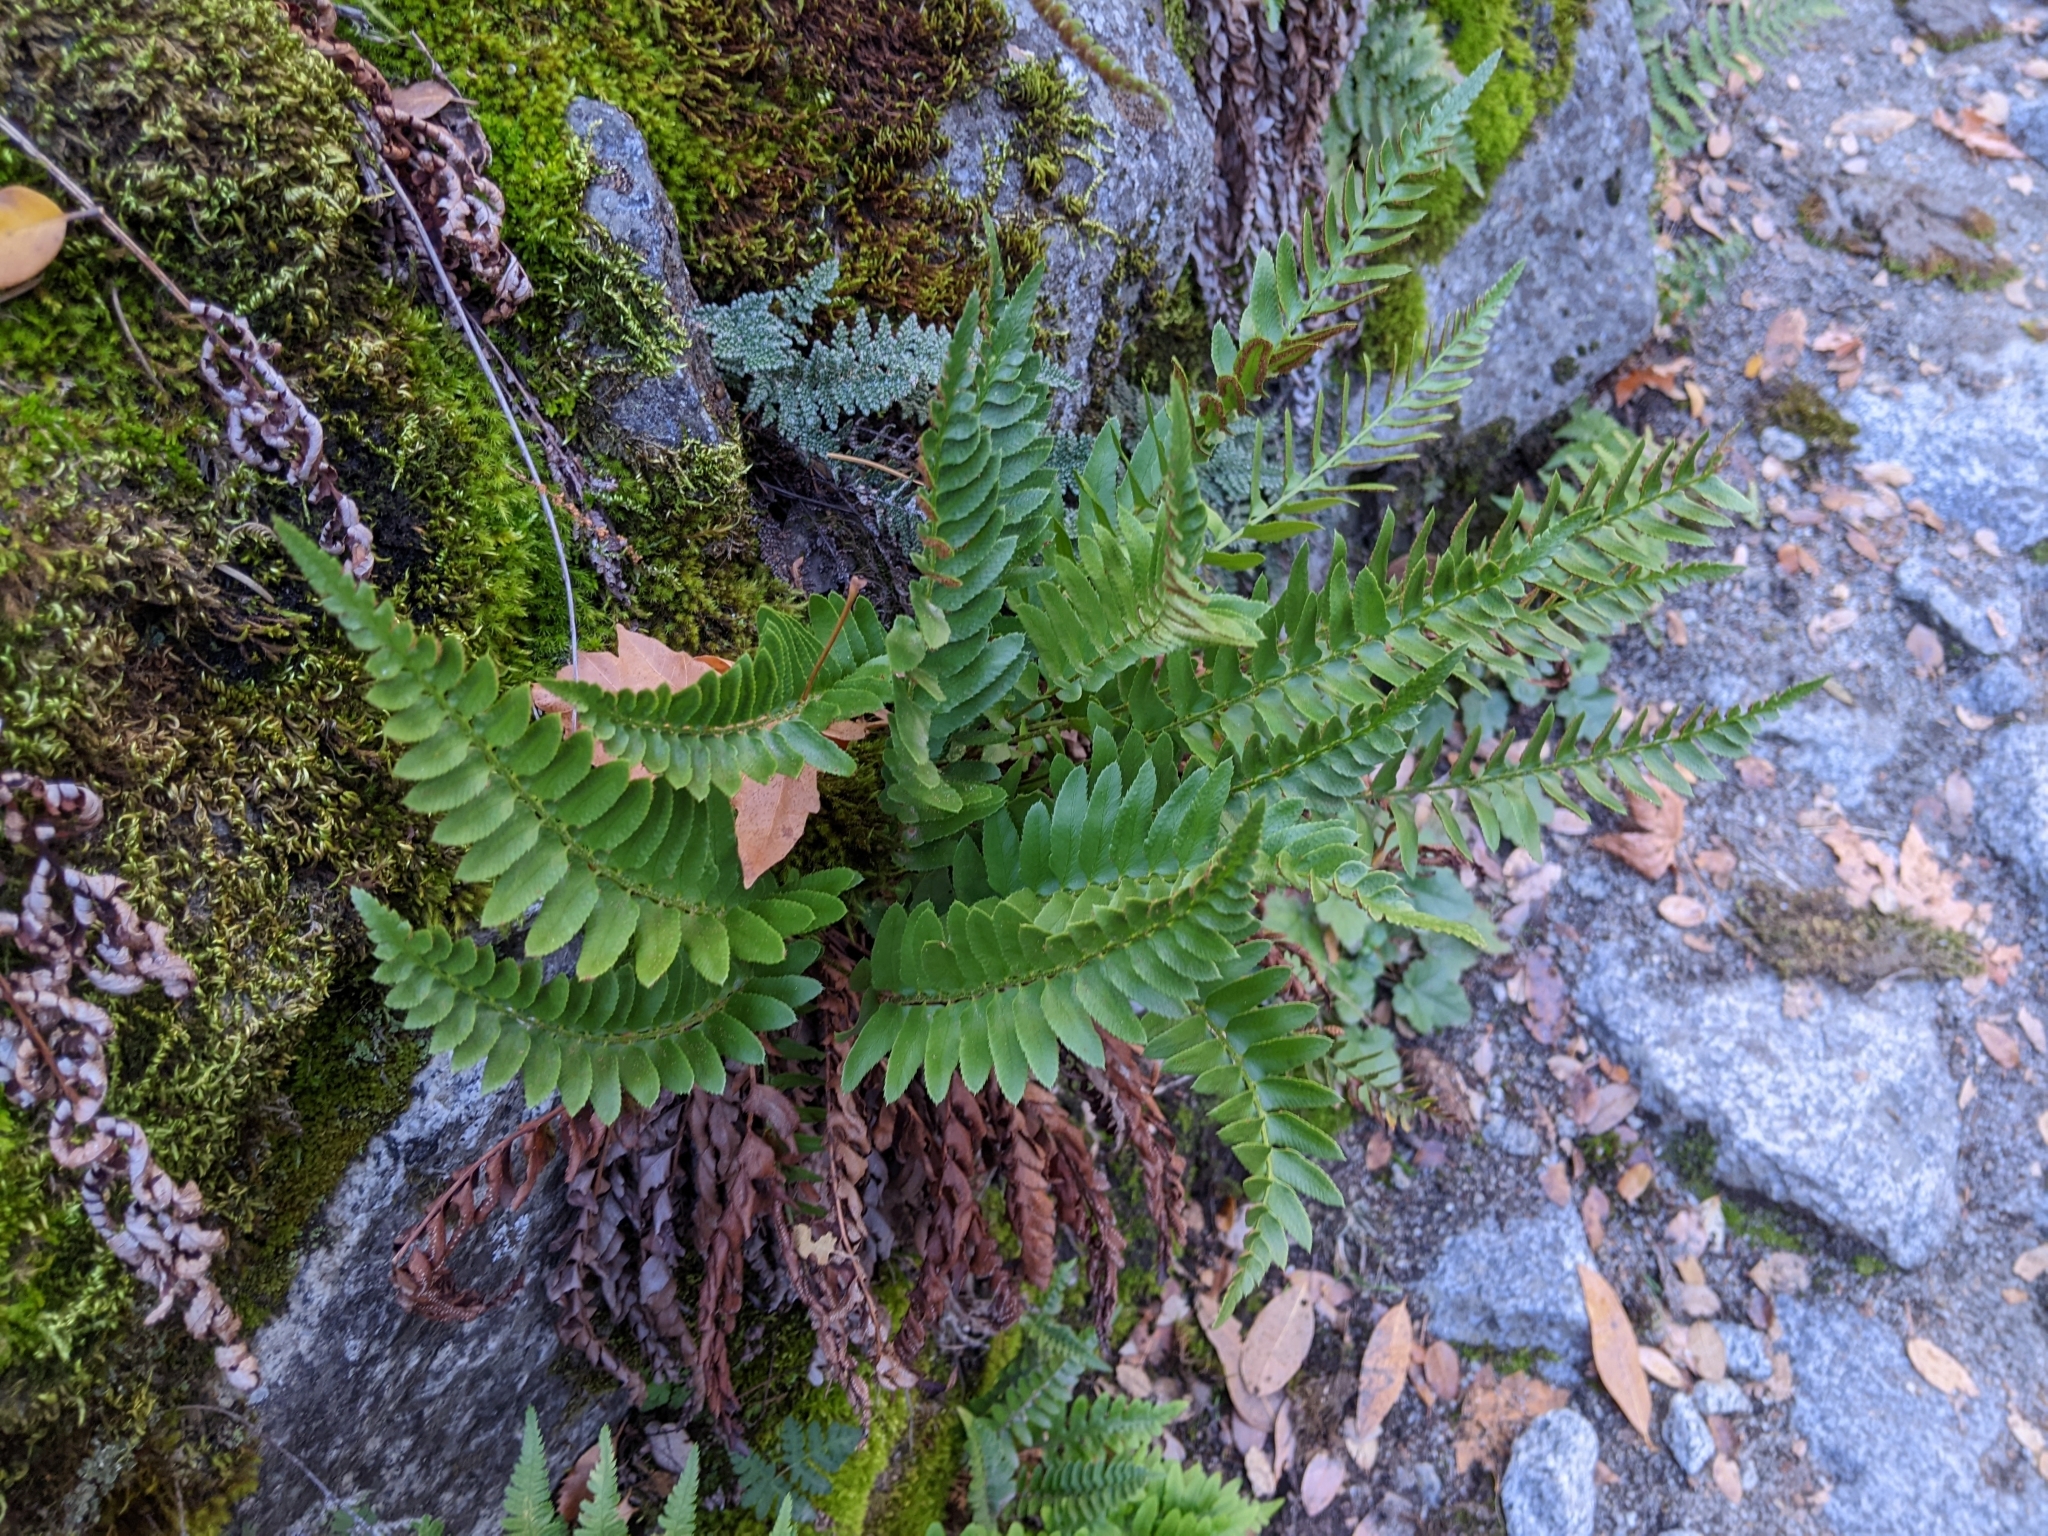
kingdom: Plantae
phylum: Tracheophyta
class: Polypodiopsida
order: Polypodiales
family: Dryopteridaceae
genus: Polystichum
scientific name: Polystichum imbricans
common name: Dwarf western sword fern
